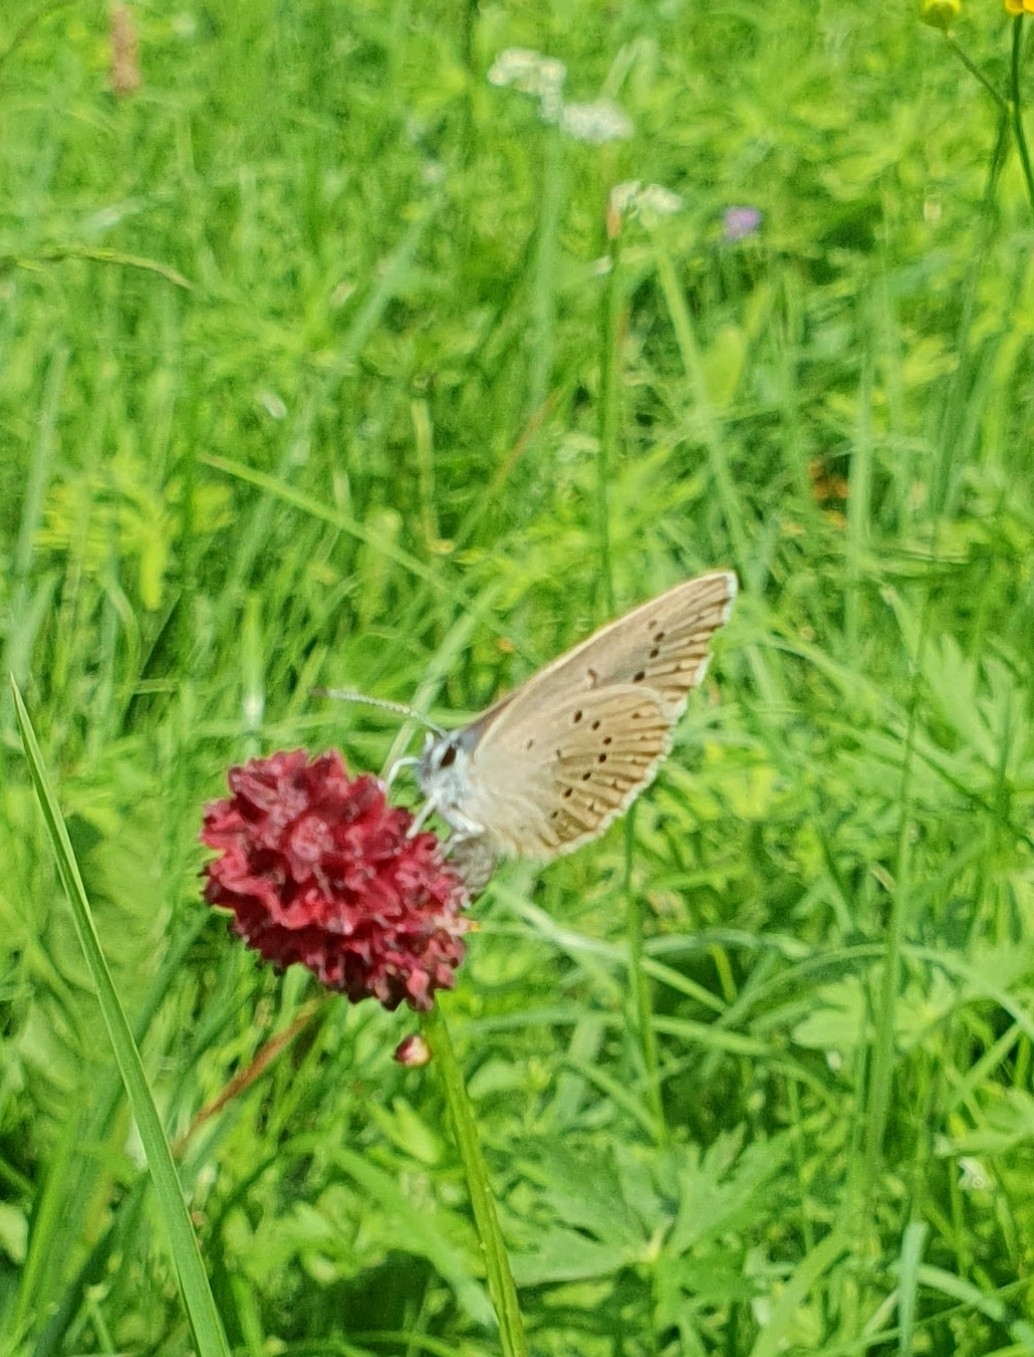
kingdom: Animalia
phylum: Arthropoda
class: Insecta
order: Lepidoptera
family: Lycaenidae
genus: Phengaris
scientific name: Phengaris teleius
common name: Scarce large blue
